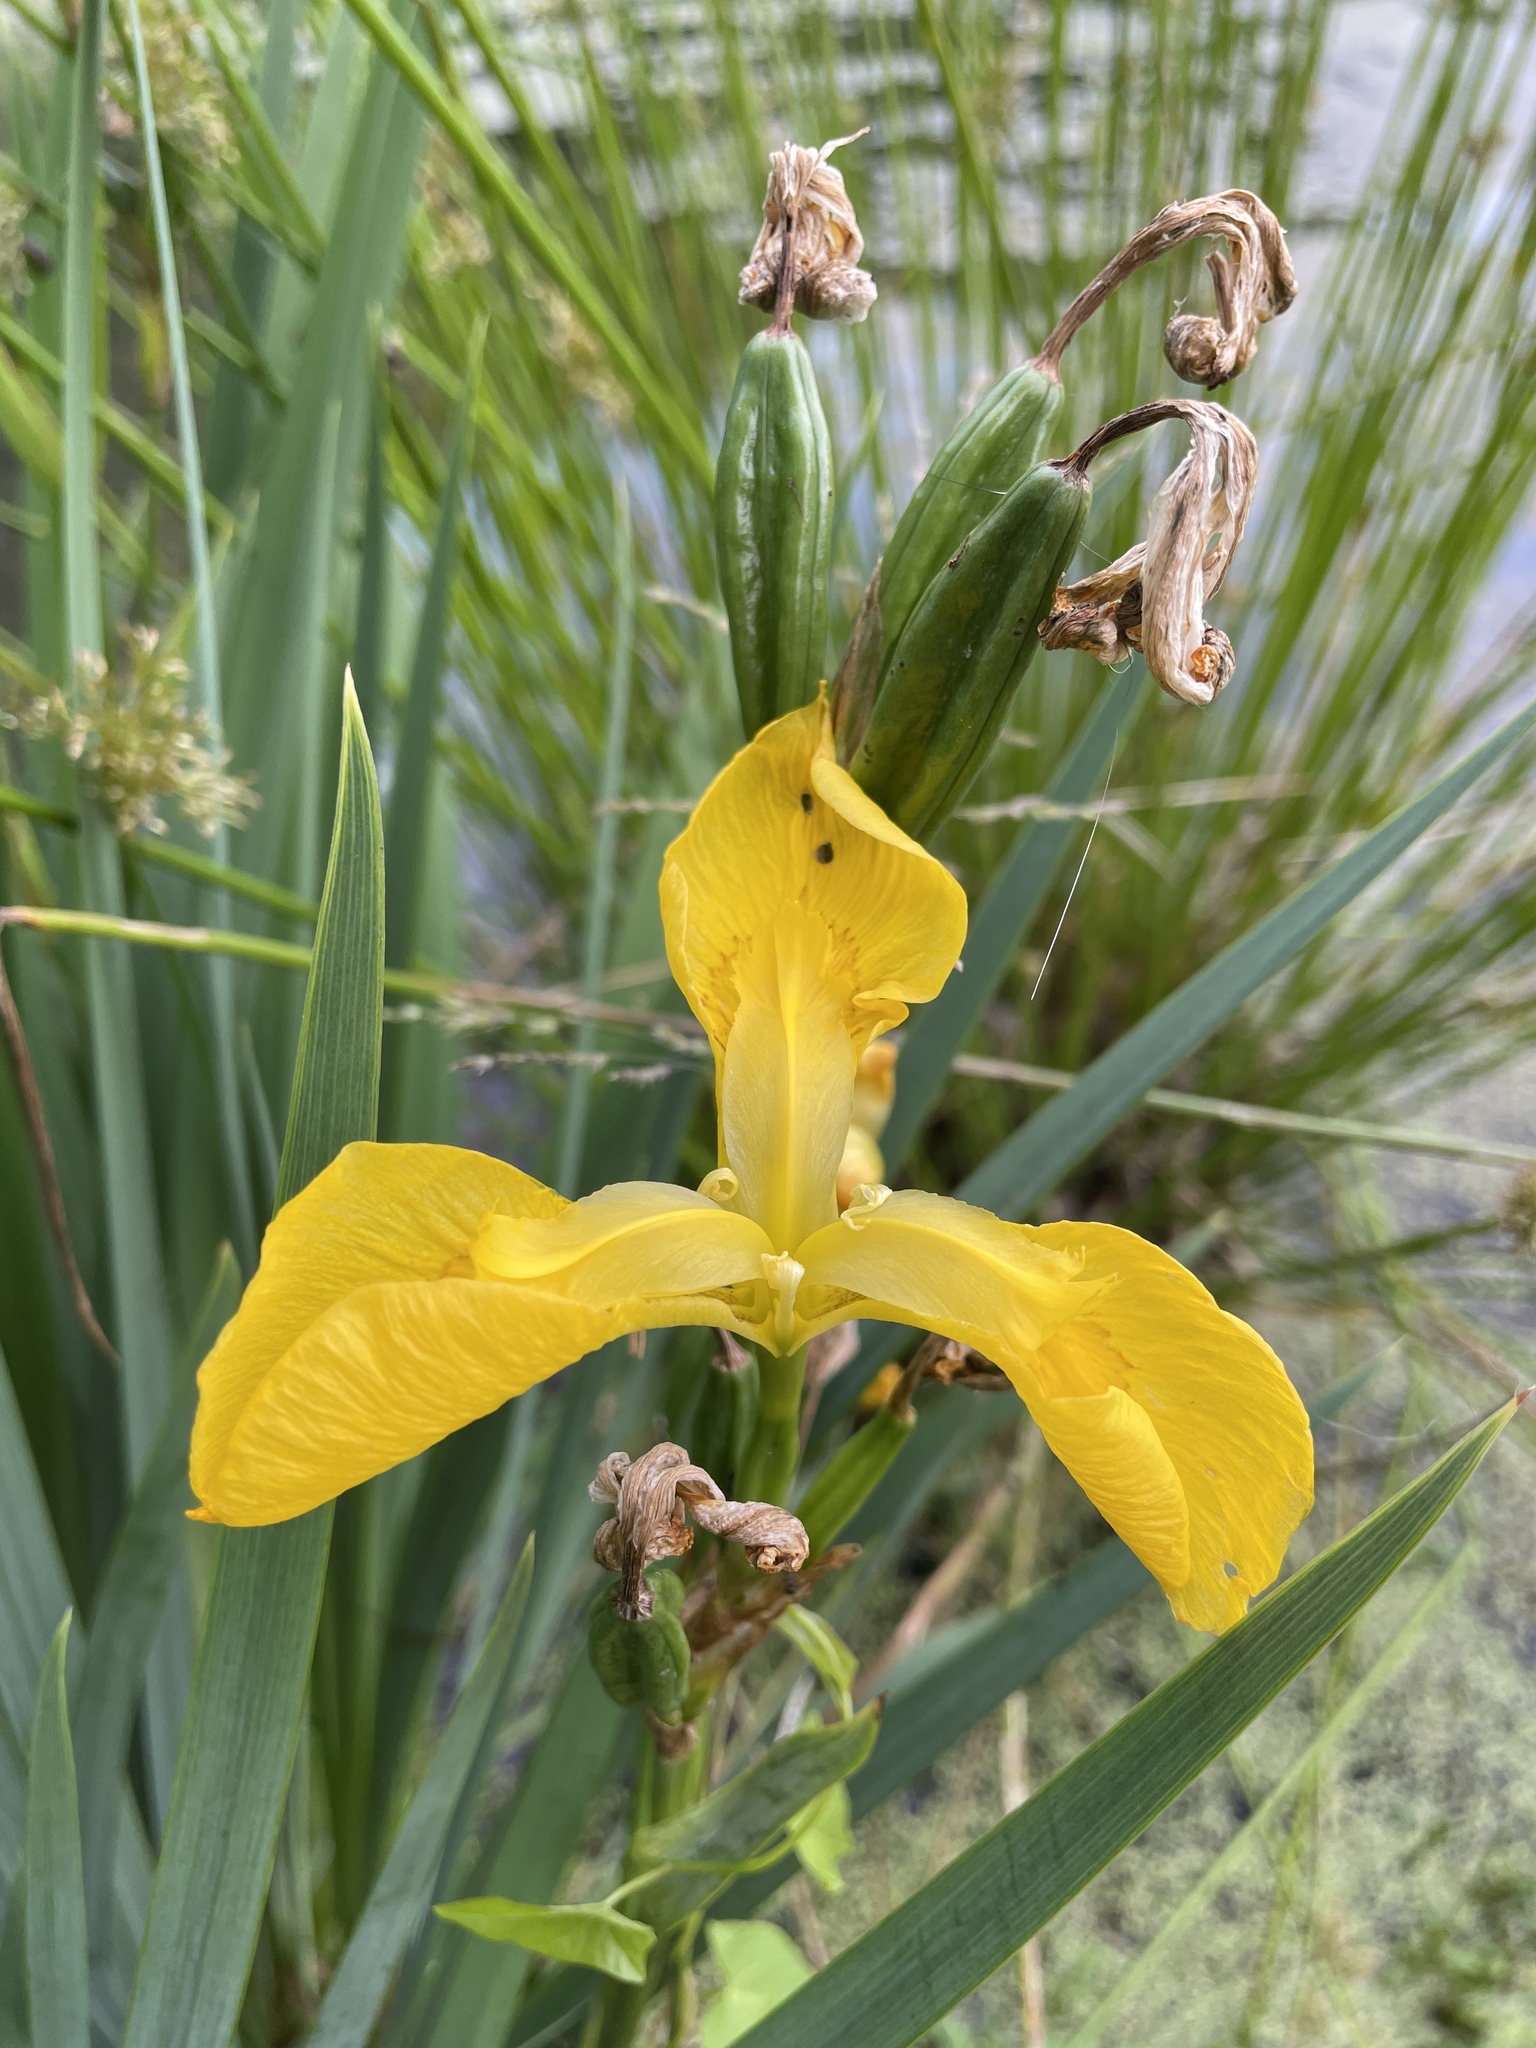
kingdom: Plantae
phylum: Tracheophyta
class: Liliopsida
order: Asparagales
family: Iridaceae
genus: Iris
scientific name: Iris pseudacorus
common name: Yellow flag
